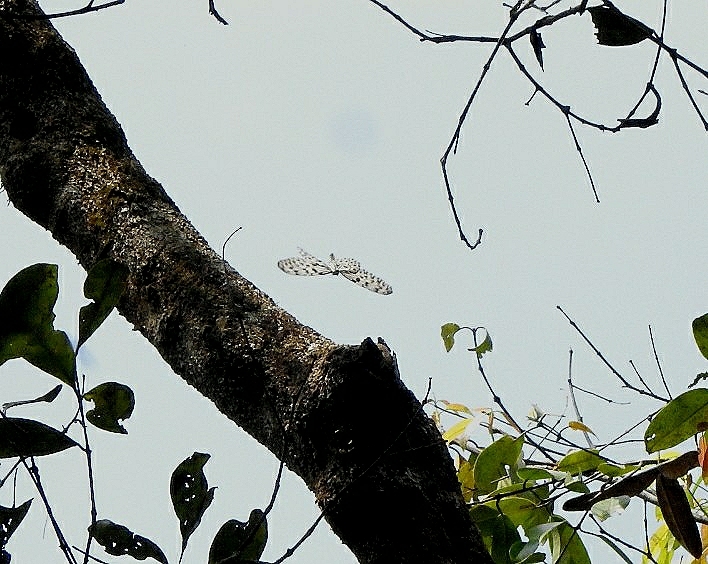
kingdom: Animalia
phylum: Arthropoda
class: Insecta
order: Lepidoptera
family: Nymphalidae
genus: Idea
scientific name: Idea malabarica
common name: Malabar tree-nymph
